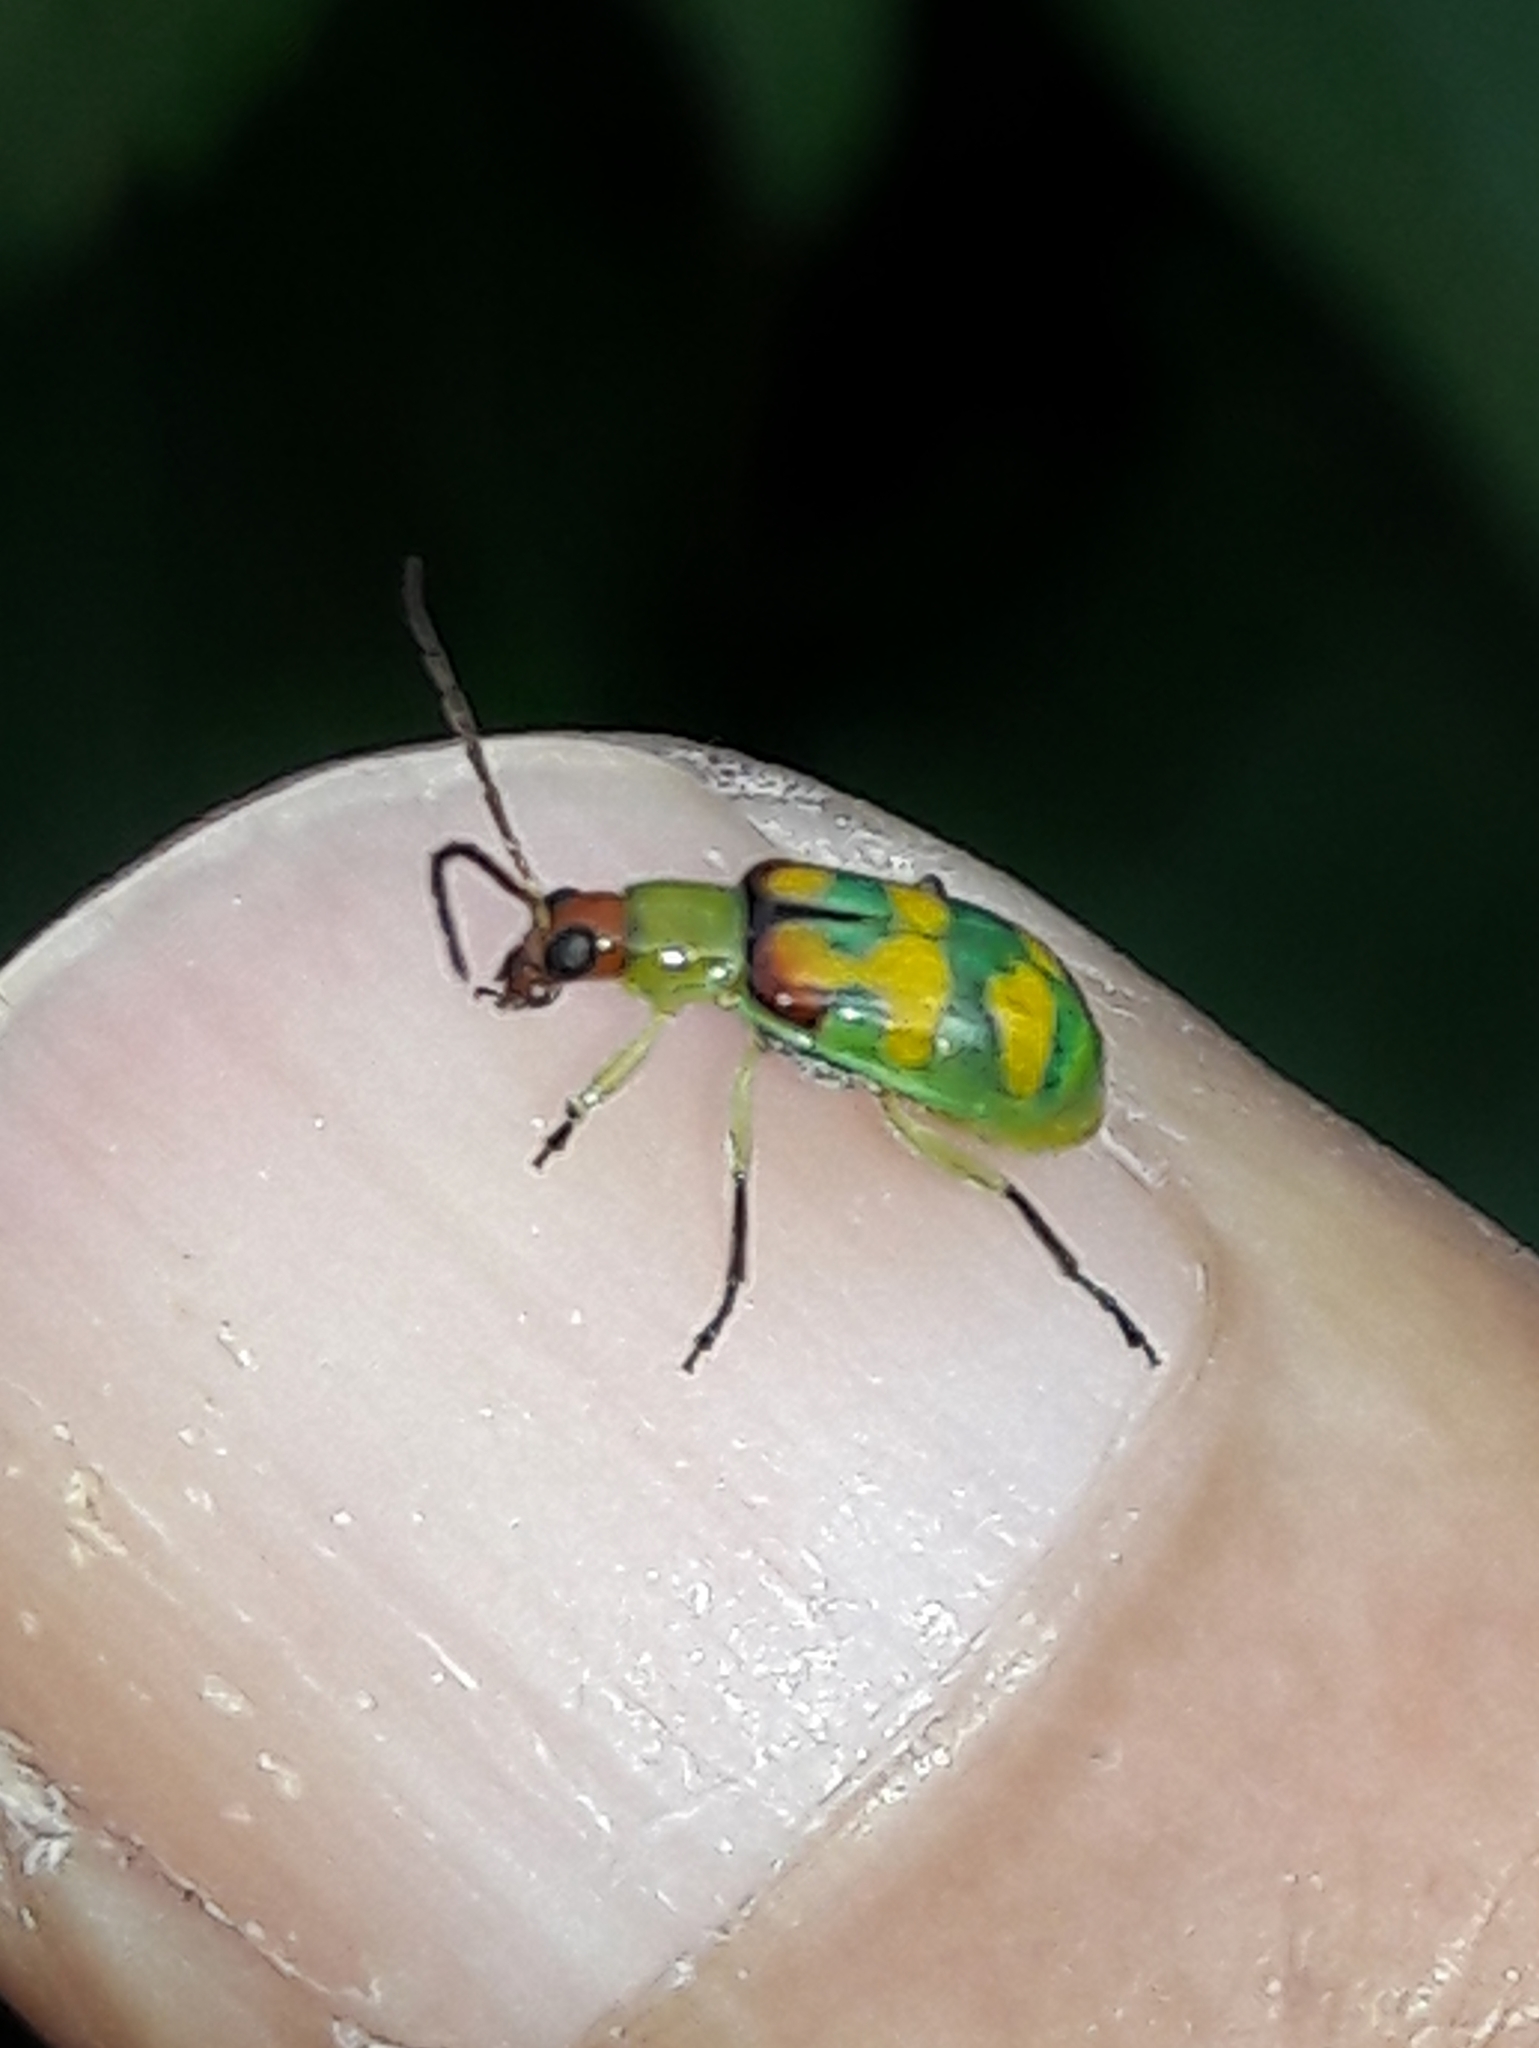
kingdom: Animalia
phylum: Arthropoda
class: Insecta
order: Coleoptera
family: Chrysomelidae
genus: Diabrotica
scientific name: Diabrotica speciosa
